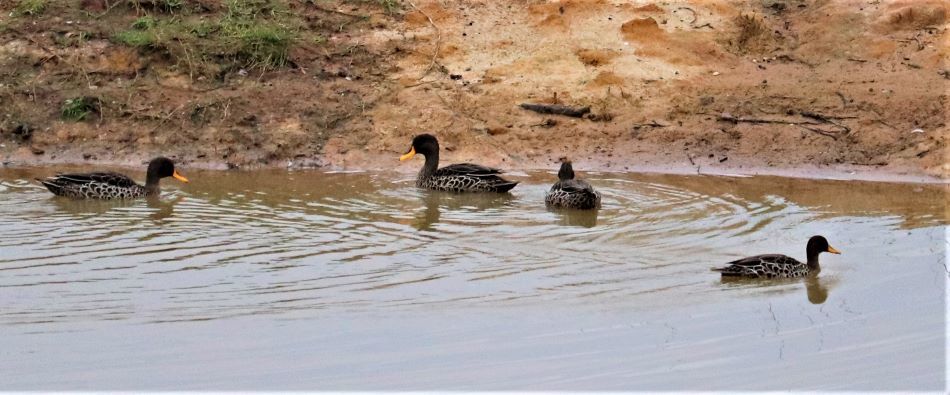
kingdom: Animalia
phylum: Chordata
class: Aves
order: Anseriformes
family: Anatidae
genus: Anas
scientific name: Anas undulata
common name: Yellow-billed duck
